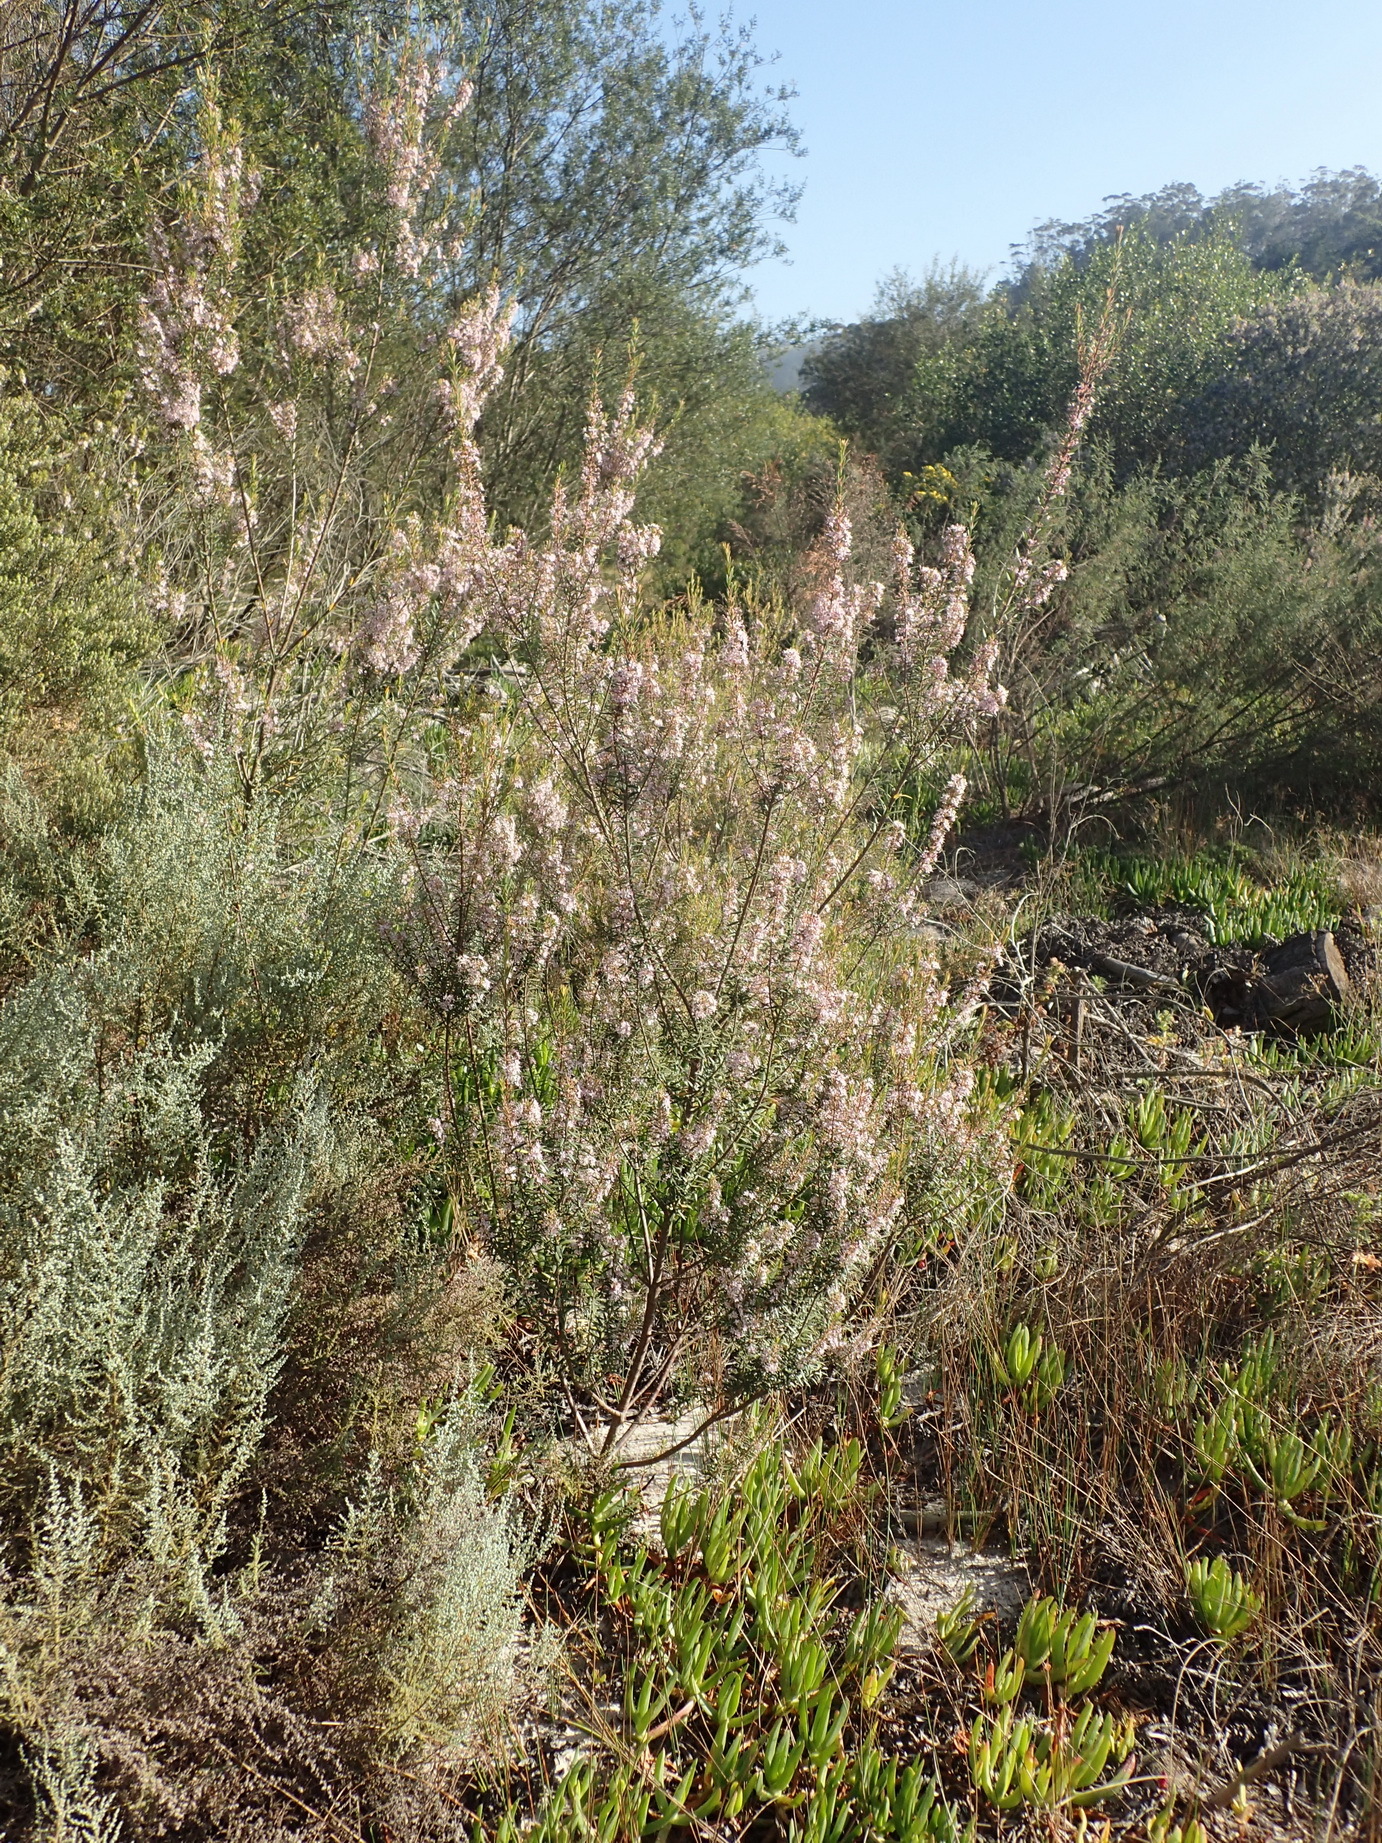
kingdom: Plantae
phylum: Tracheophyta
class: Magnoliopsida
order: Sapindales
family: Rutaceae
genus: Agathosma
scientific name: Agathosma ovata
